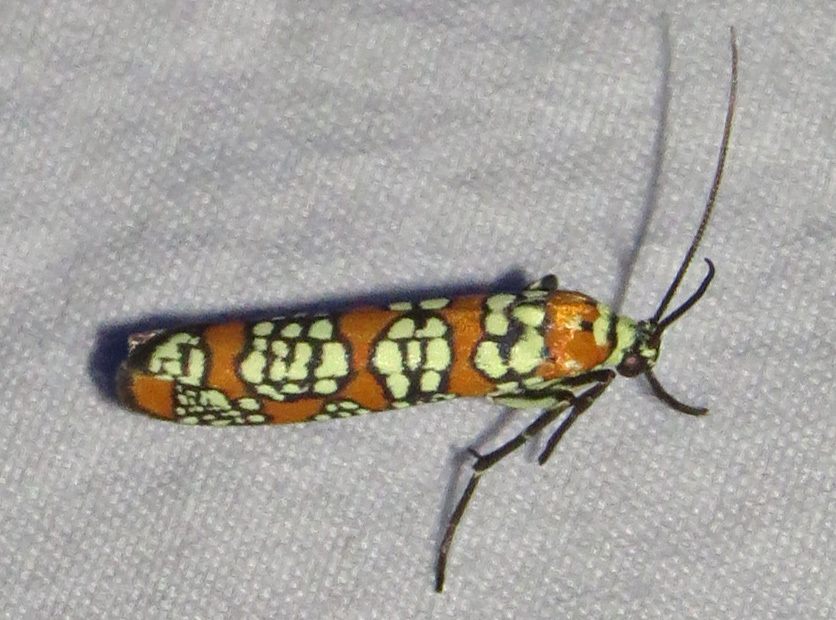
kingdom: Animalia
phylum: Arthropoda
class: Insecta
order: Lepidoptera
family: Attevidae
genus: Atteva
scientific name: Atteva punctella
